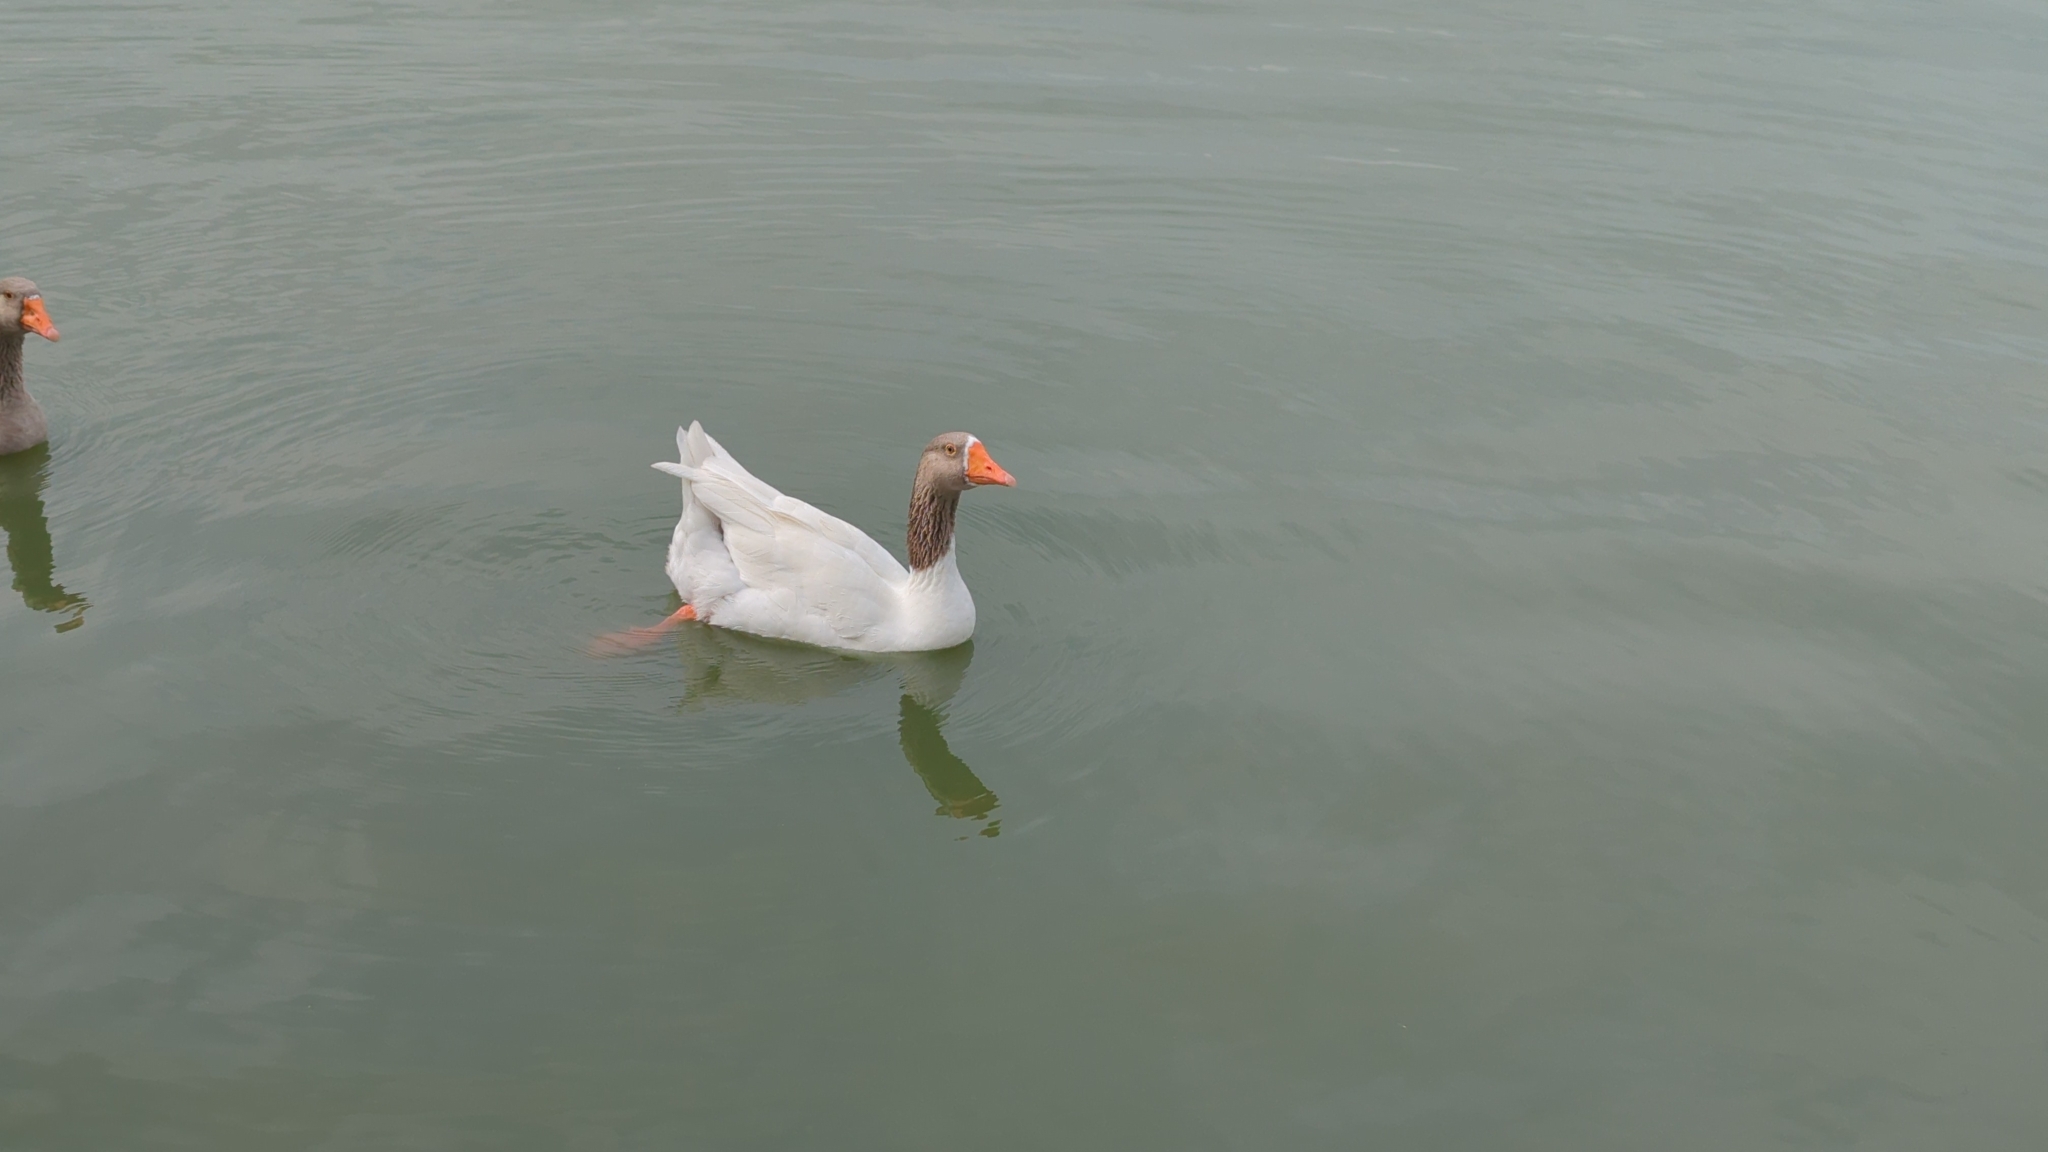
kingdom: Animalia
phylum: Chordata
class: Aves
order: Anseriformes
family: Anatidae
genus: Anser
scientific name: Anser
